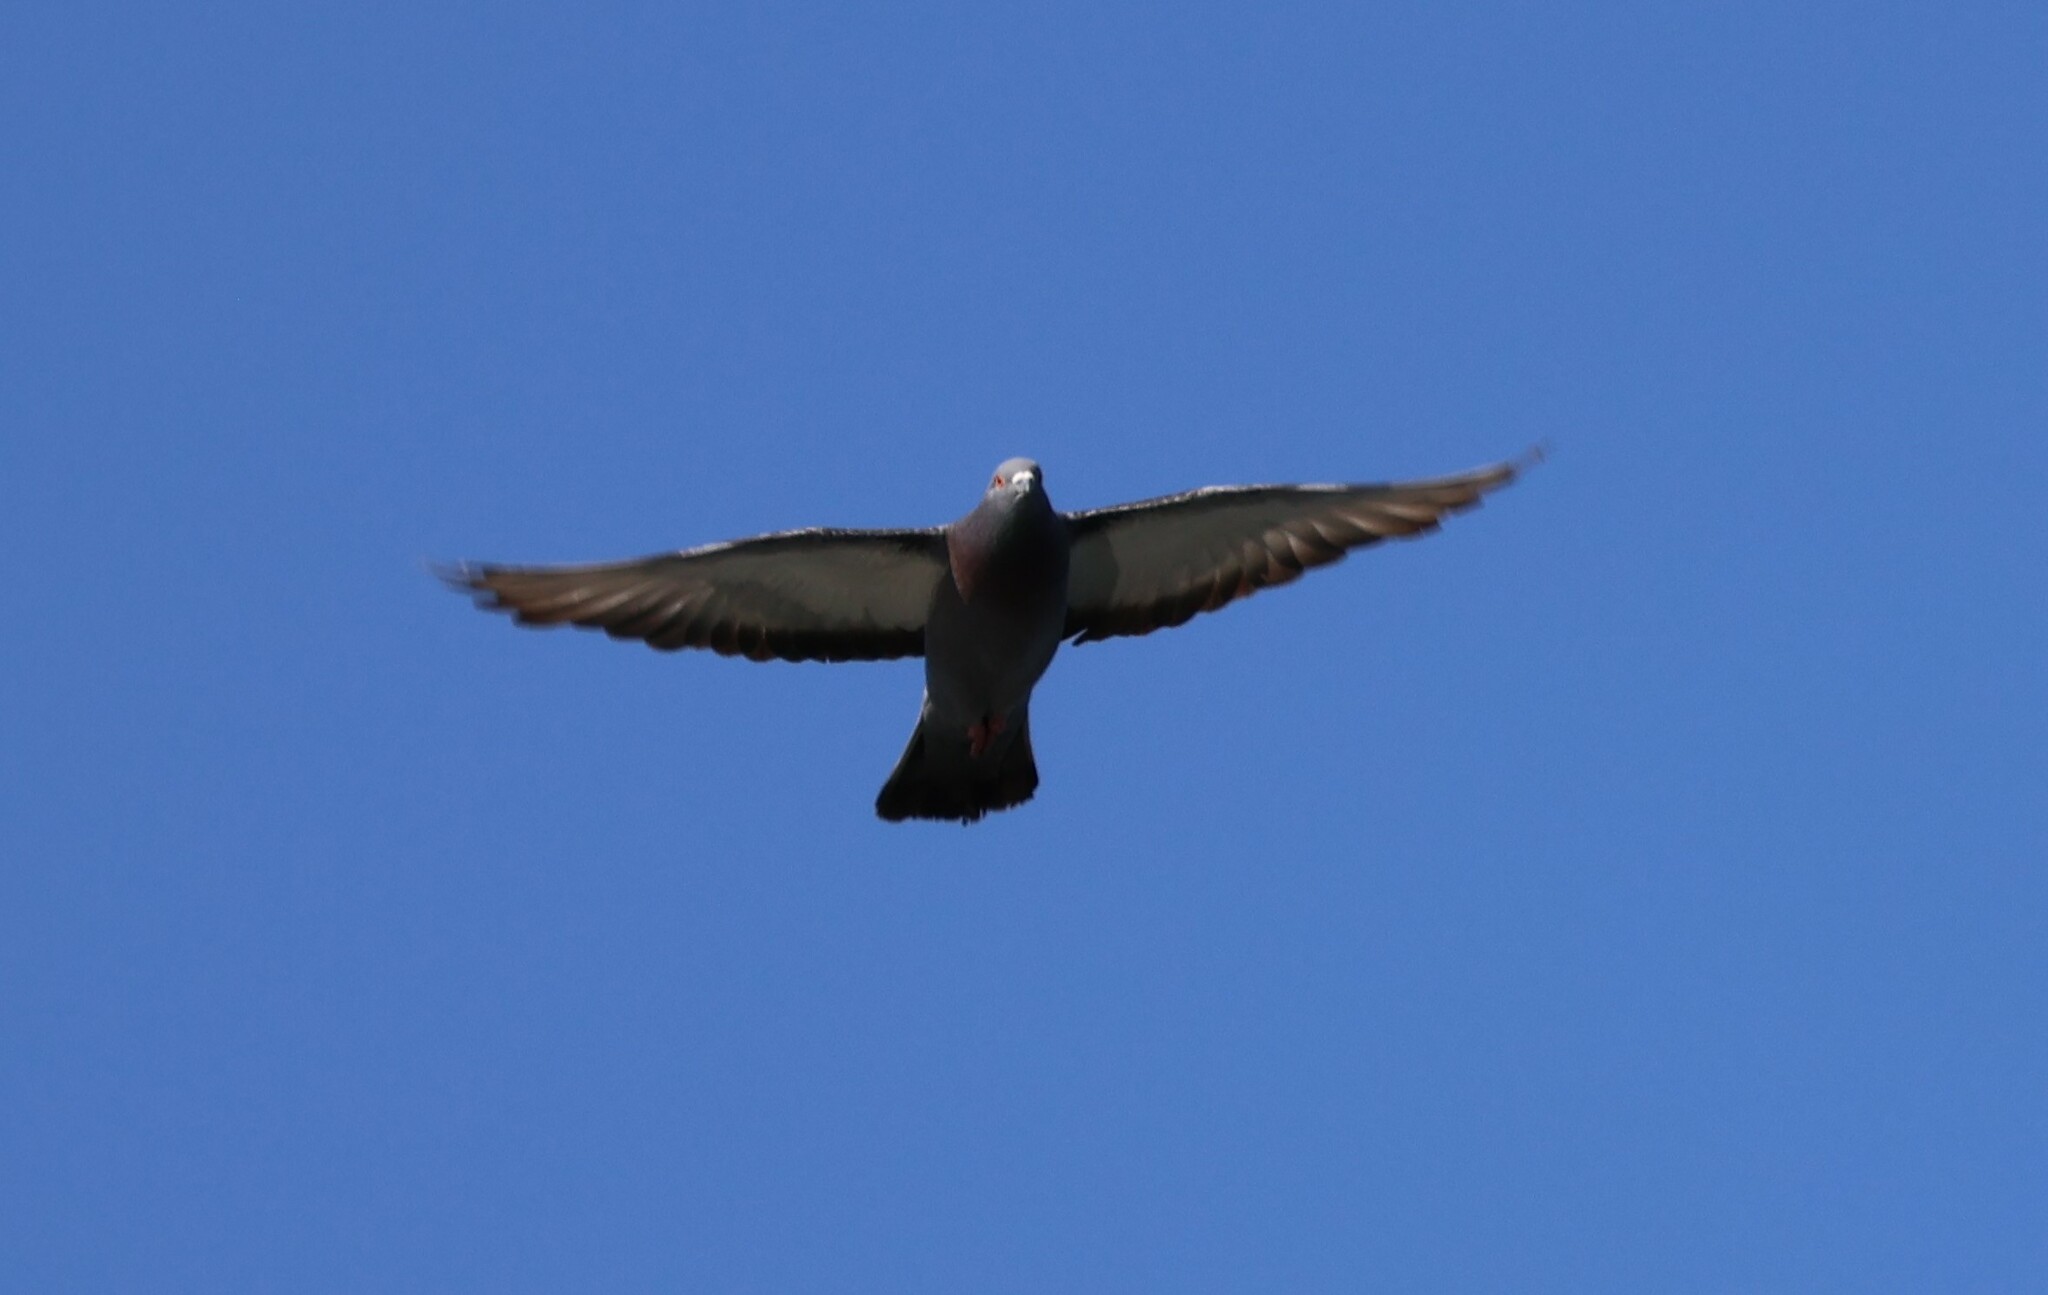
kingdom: Animalia
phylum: Chordata
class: Aves
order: Columbiformes
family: Columbidae
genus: Columba
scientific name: Columba livia
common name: Rock pigeon
